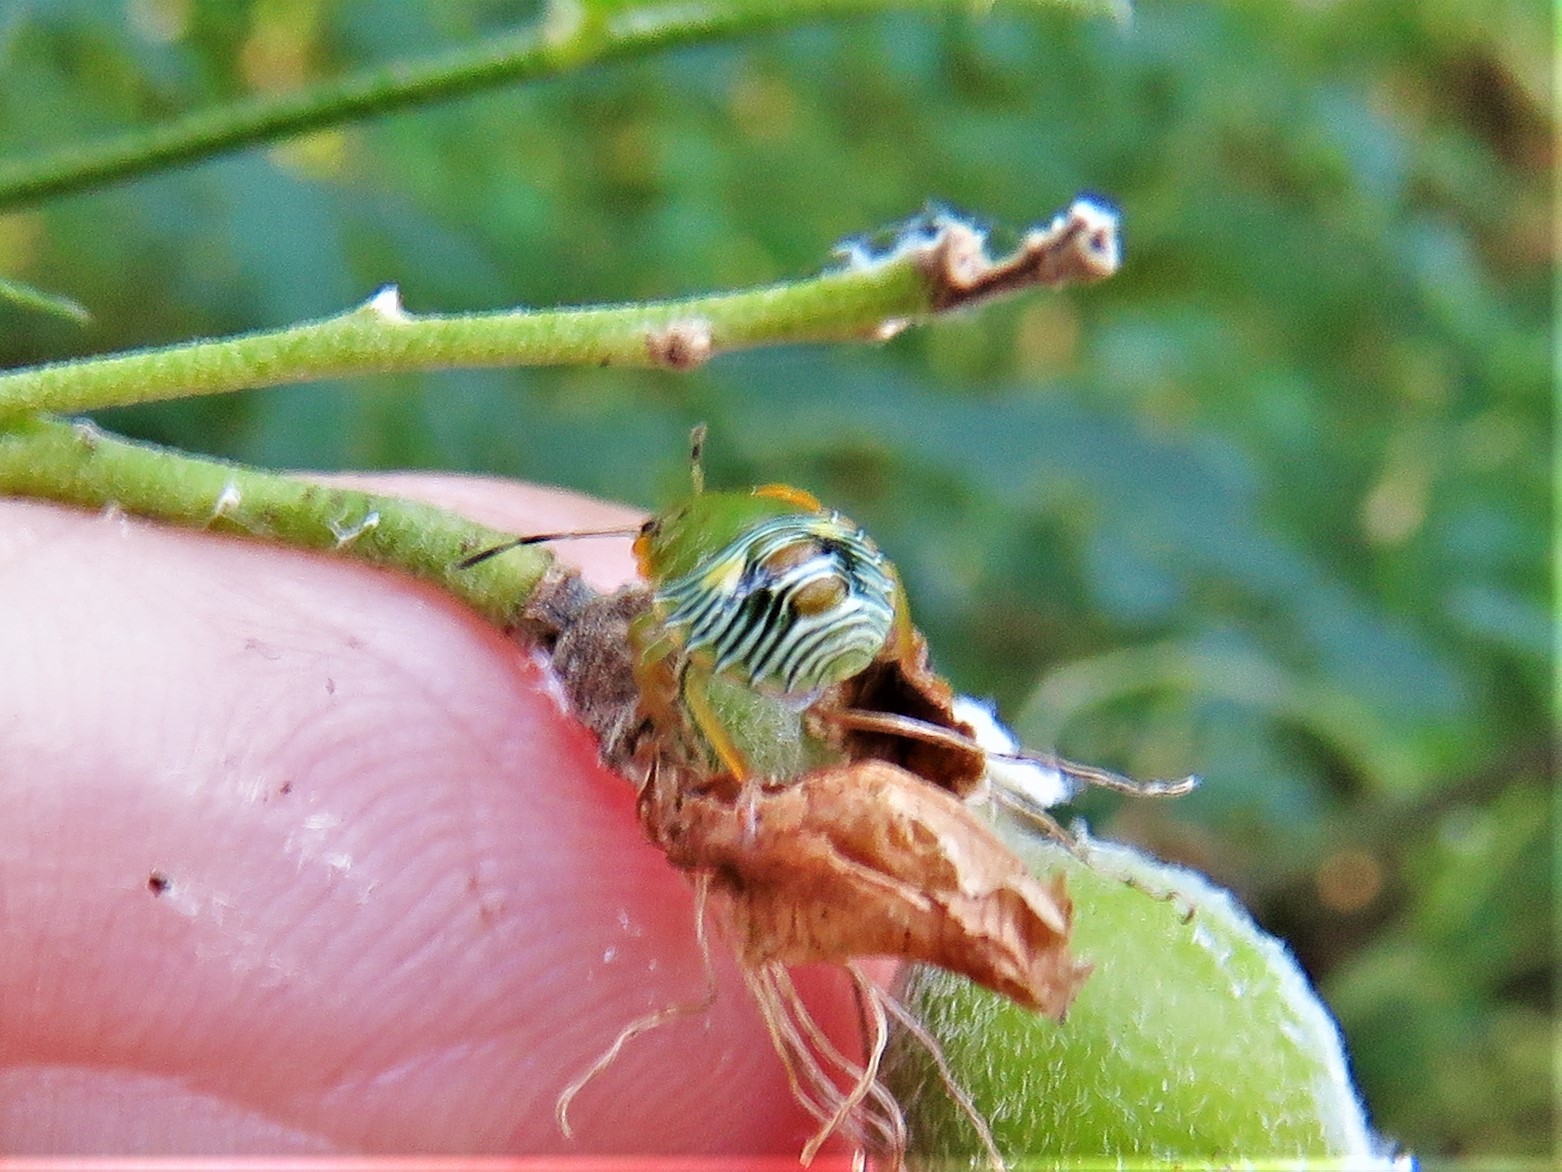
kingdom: Animalia
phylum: Arthropoda
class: Insecta
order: Hemiptera
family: Pentatomidae
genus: Chinavia
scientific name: Chinavia hilaris
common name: Green stink bug
